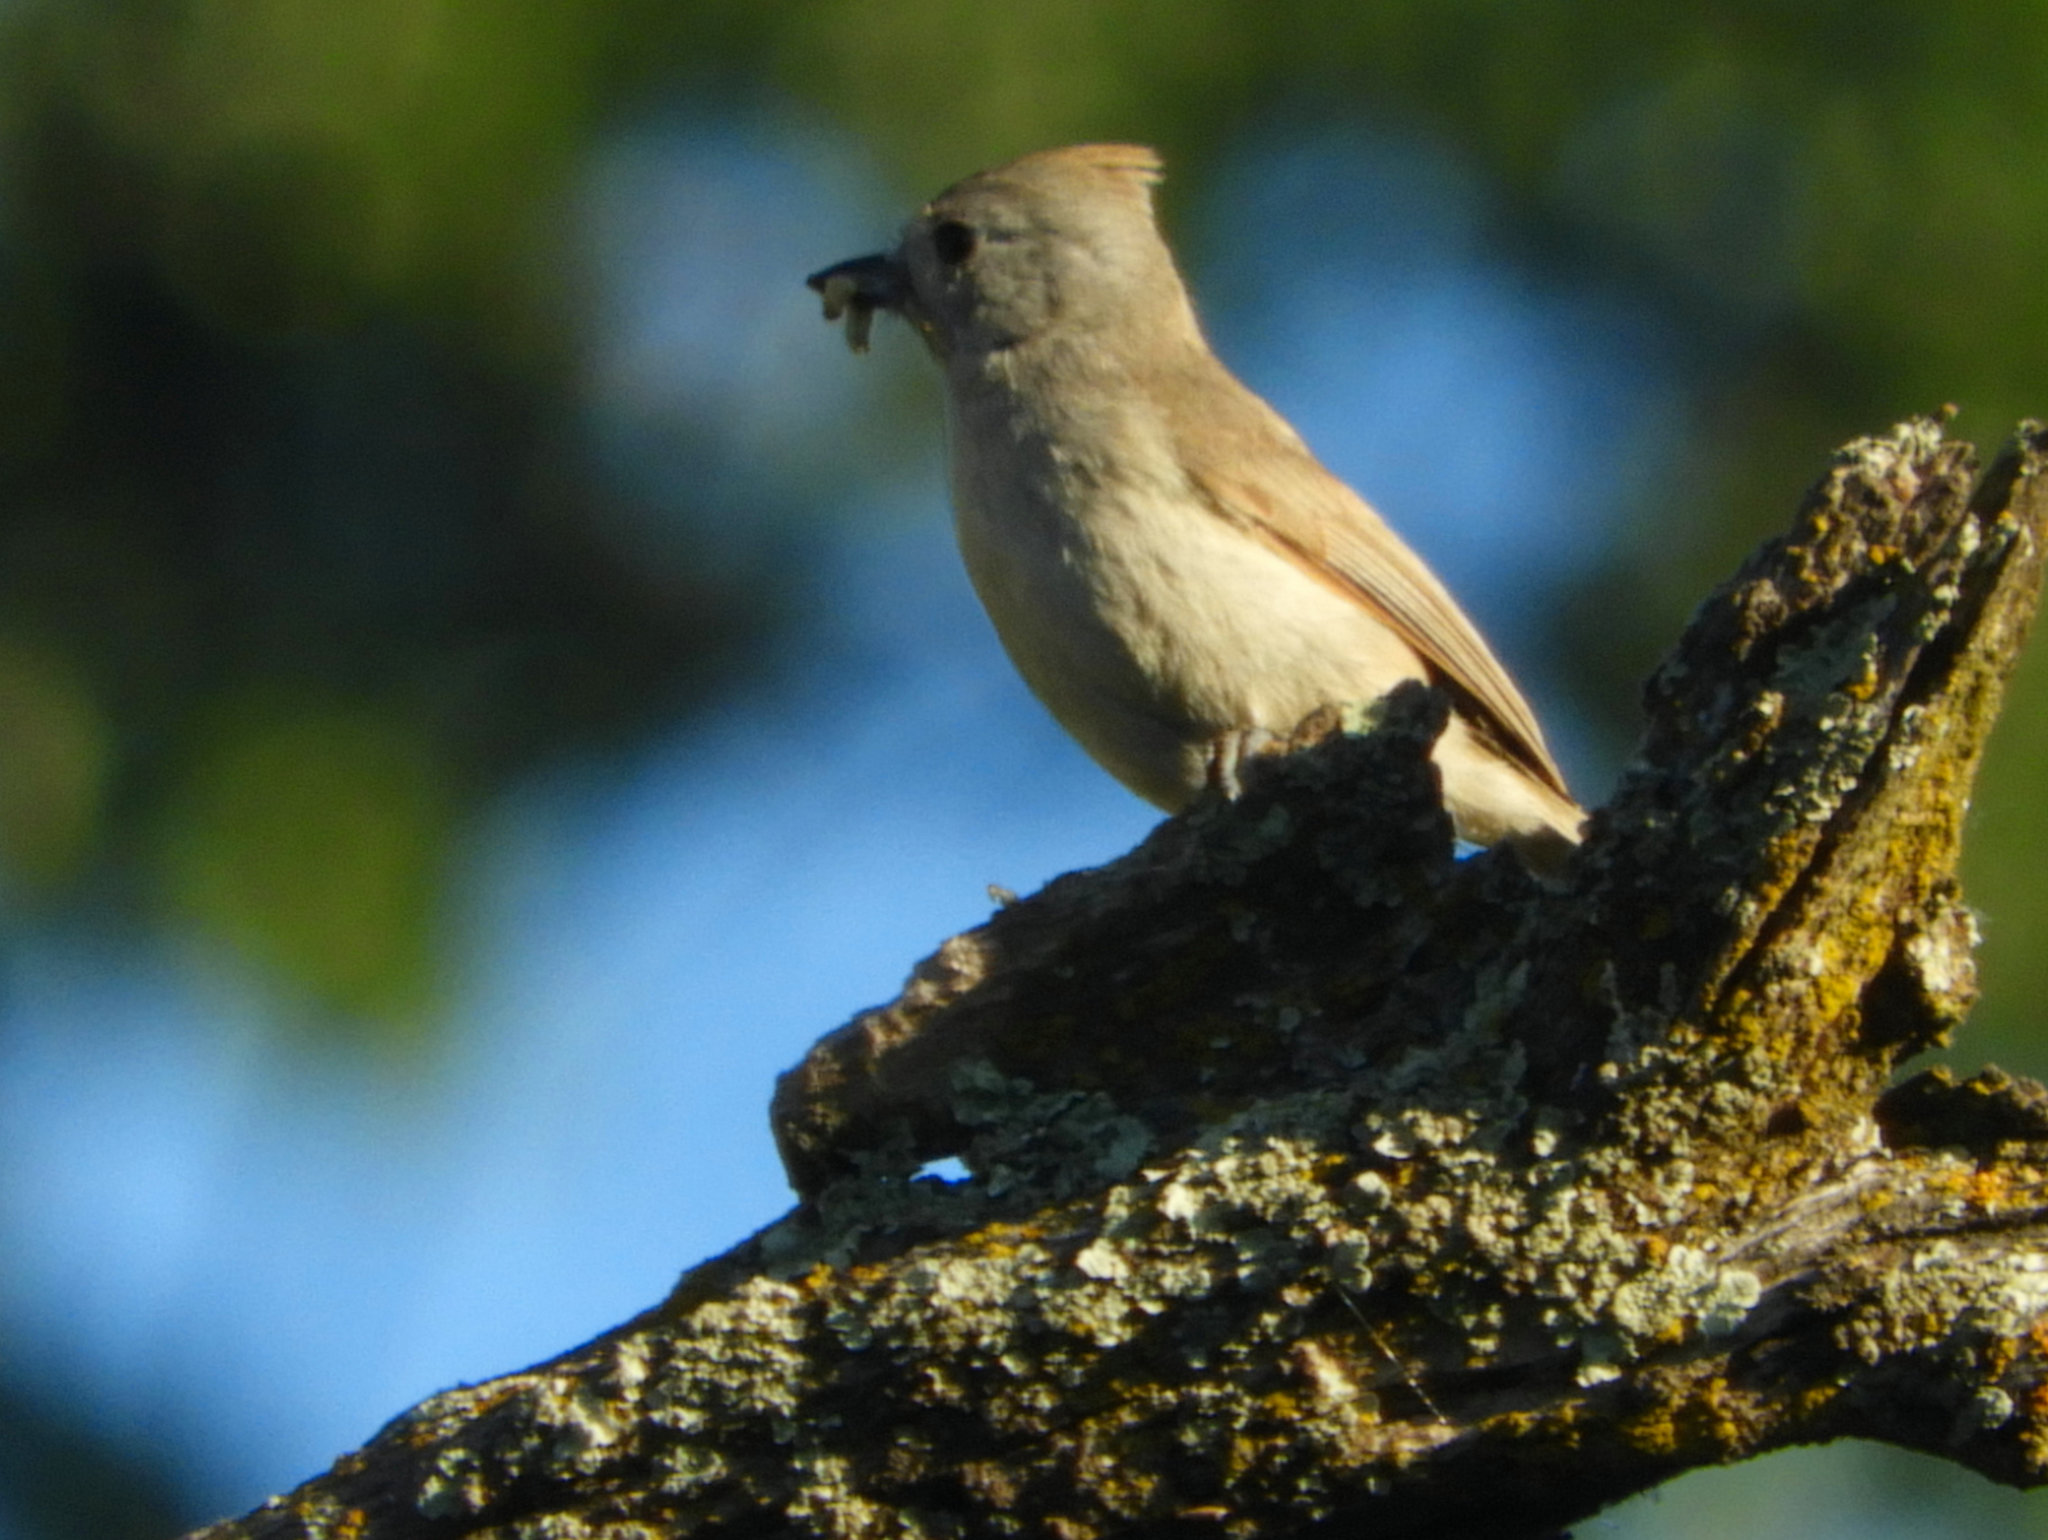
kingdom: Animalia
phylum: Chordata
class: Aves
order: Passeriformes
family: Paridae
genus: Baeolophus
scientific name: Baeolophus inornatus
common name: Oak titmouse
